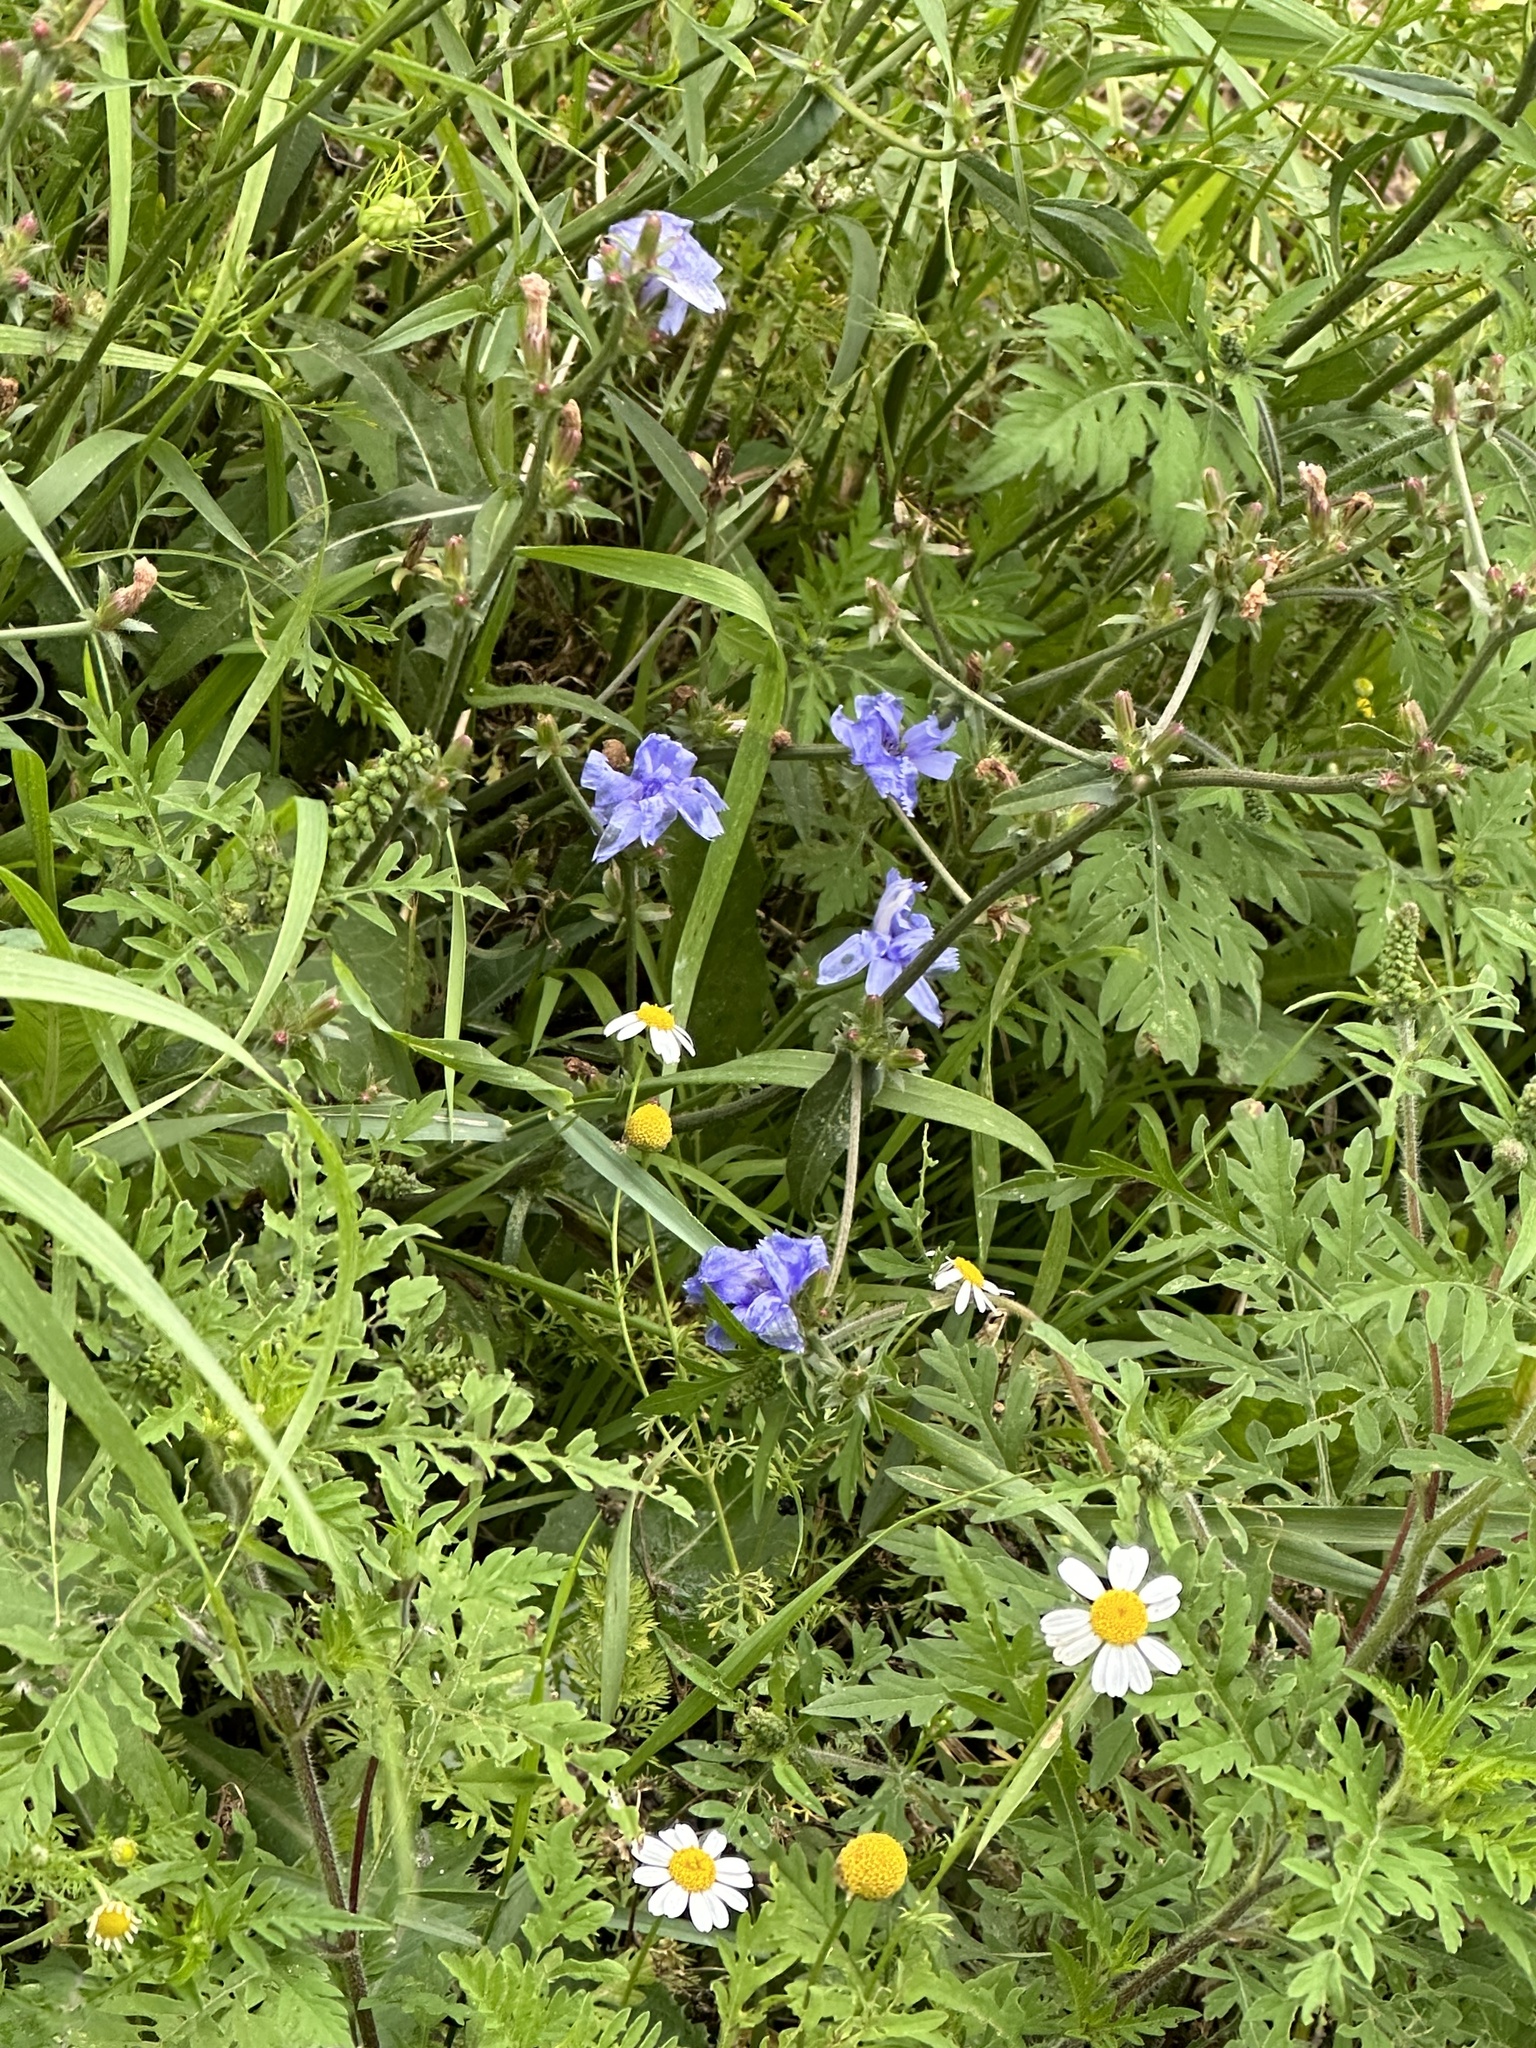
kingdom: Plantae
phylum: Tracheophyta
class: Magnoliopsida
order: Asterales
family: Asteraceae
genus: Cichorium
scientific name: Cichorium intybus
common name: Chicory
